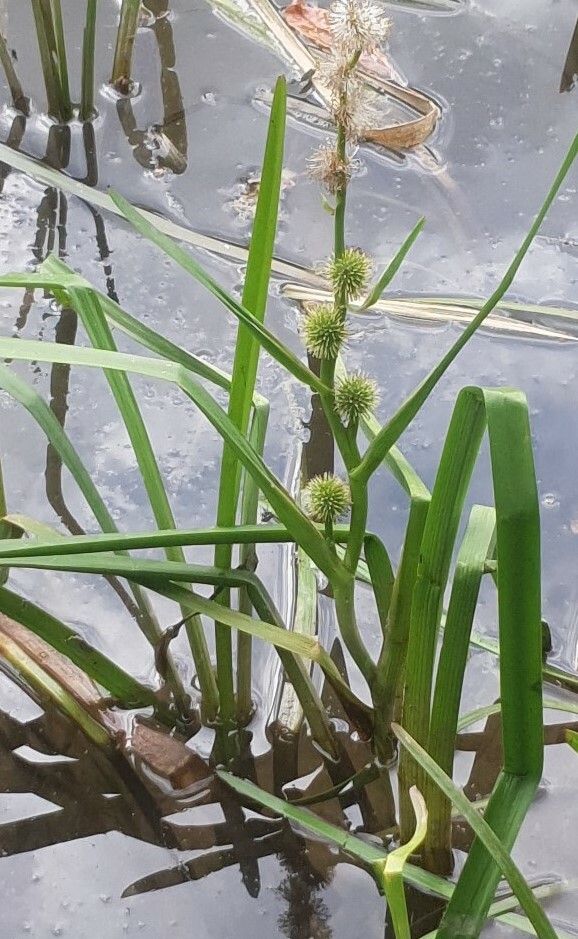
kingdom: Plantae
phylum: Tracheophyta
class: Liliopsida
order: Poales
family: Typhaceae
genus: Sparganium
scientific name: Sparganium emersum
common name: Unbranched bur-reed
